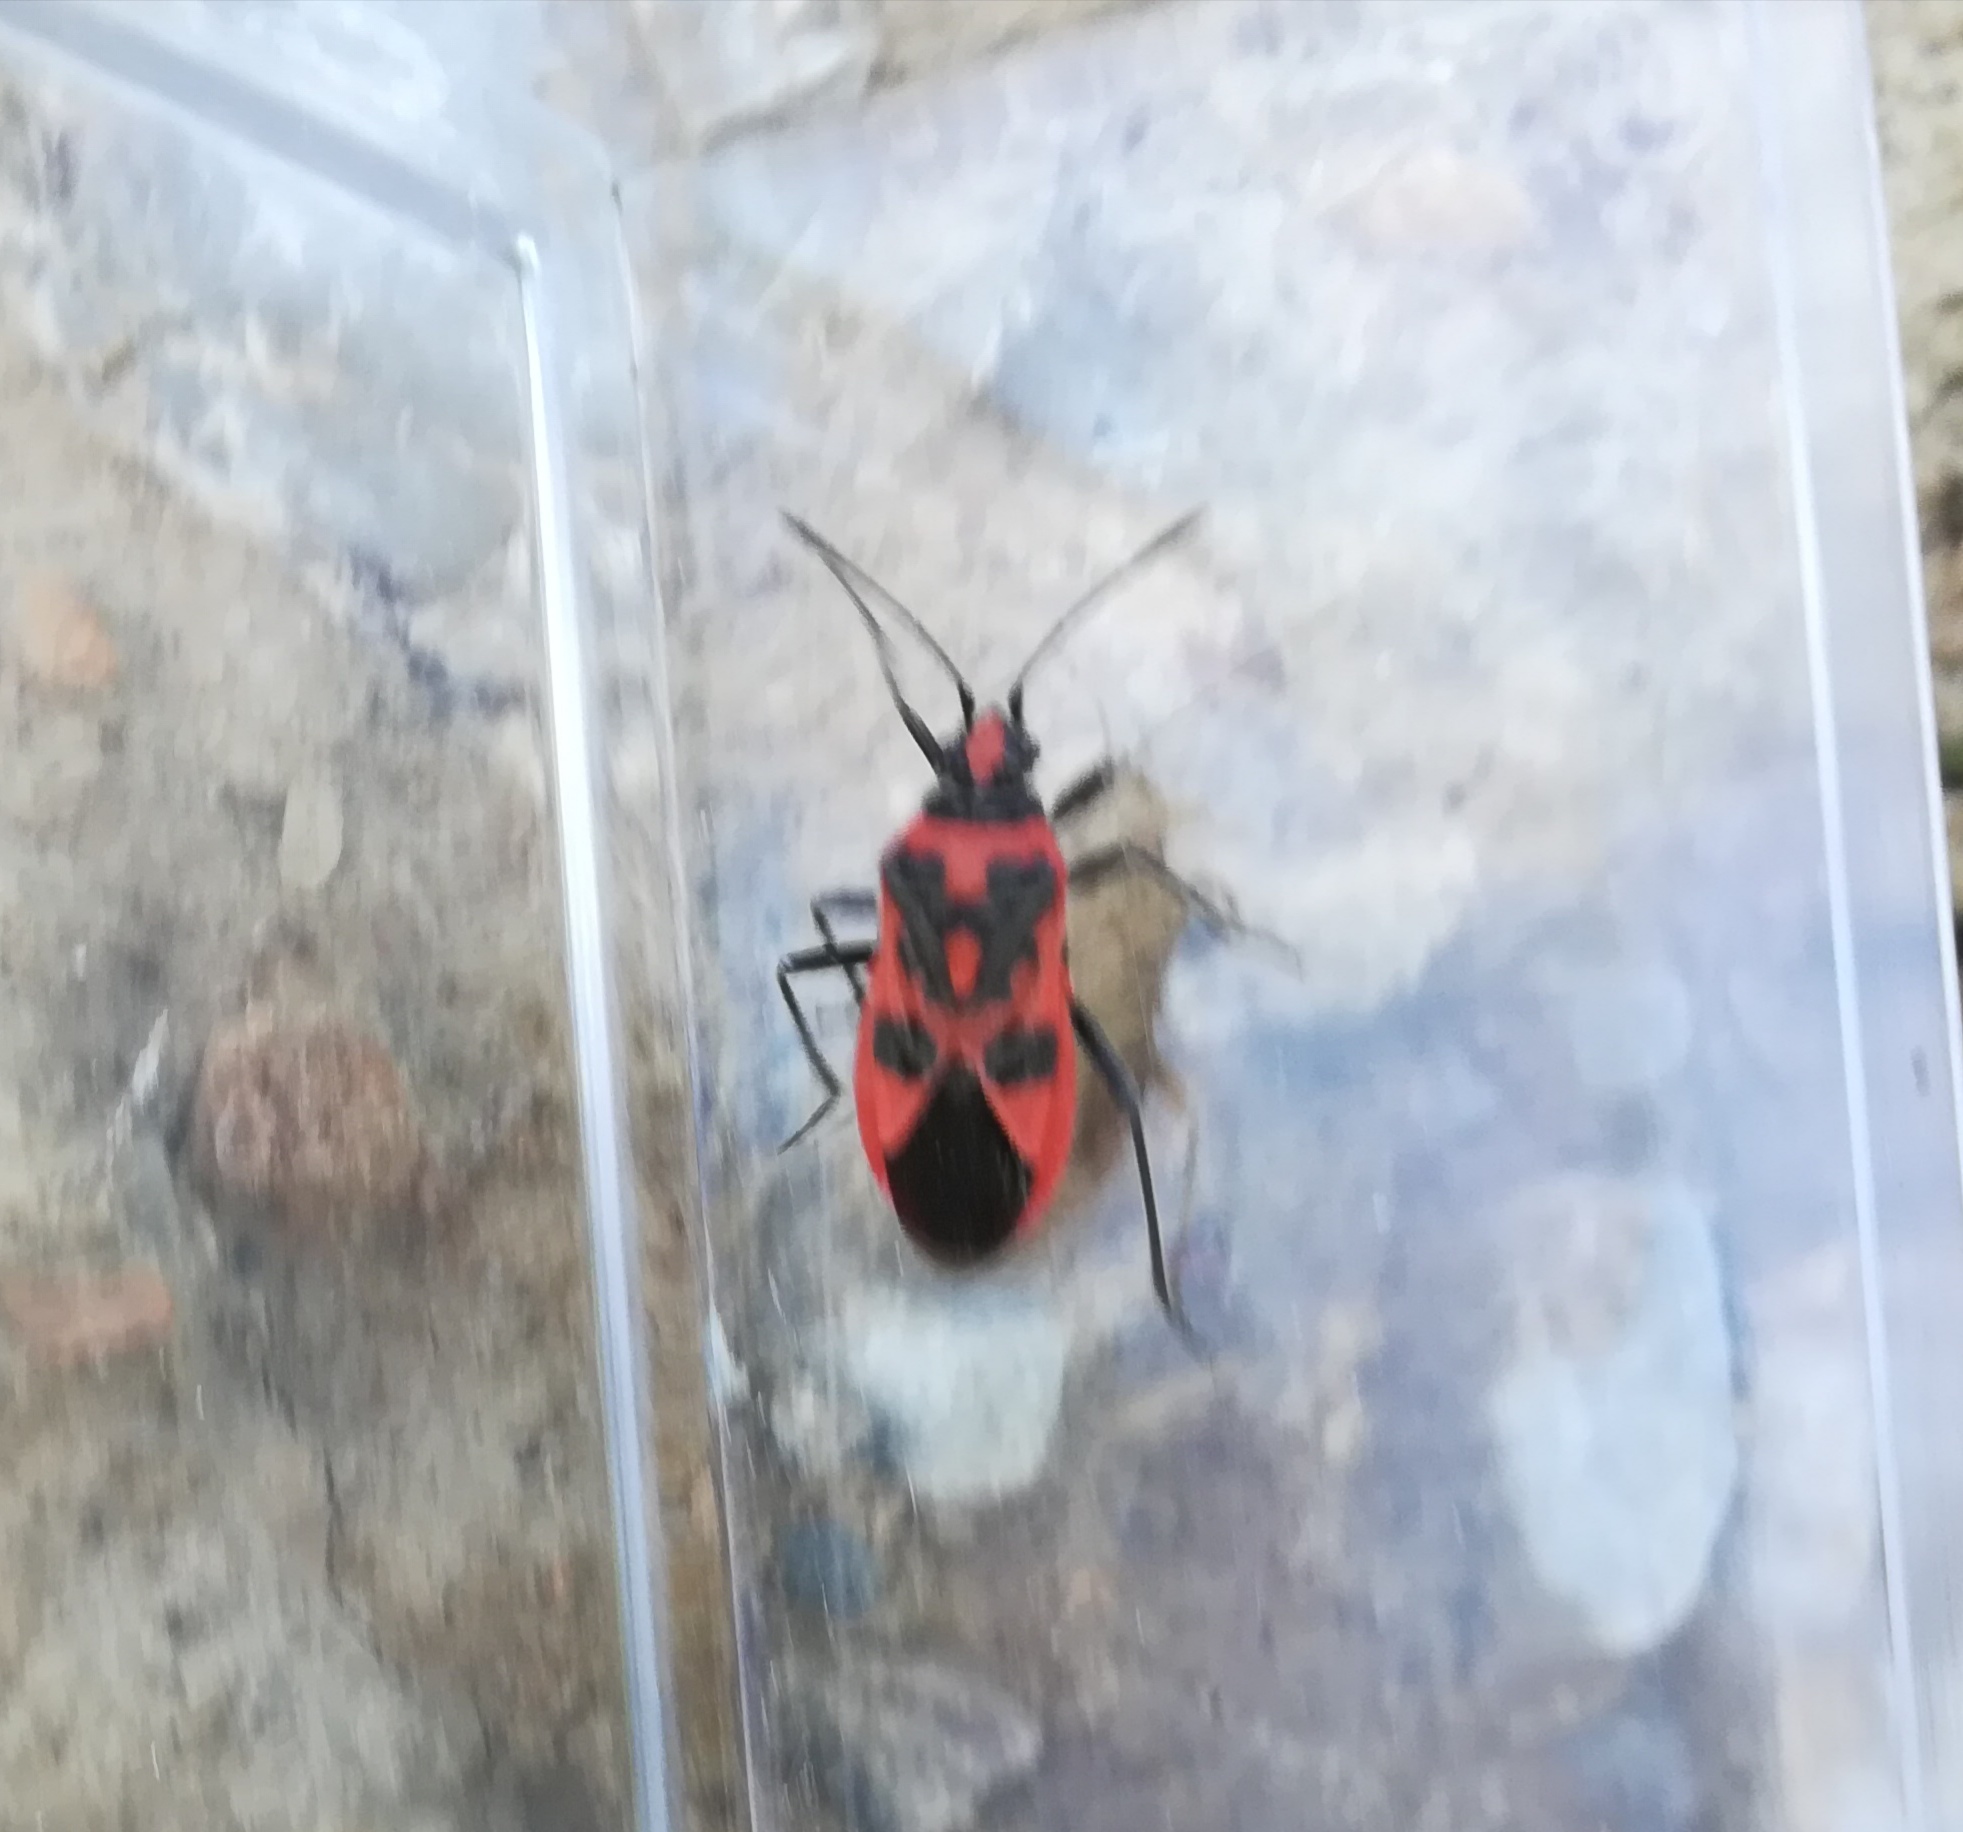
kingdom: Animalia
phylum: Arthropoda
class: Insecta
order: Hemiptera
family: Rhopalidae
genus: Corizus
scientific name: Corizus hyoscyami
